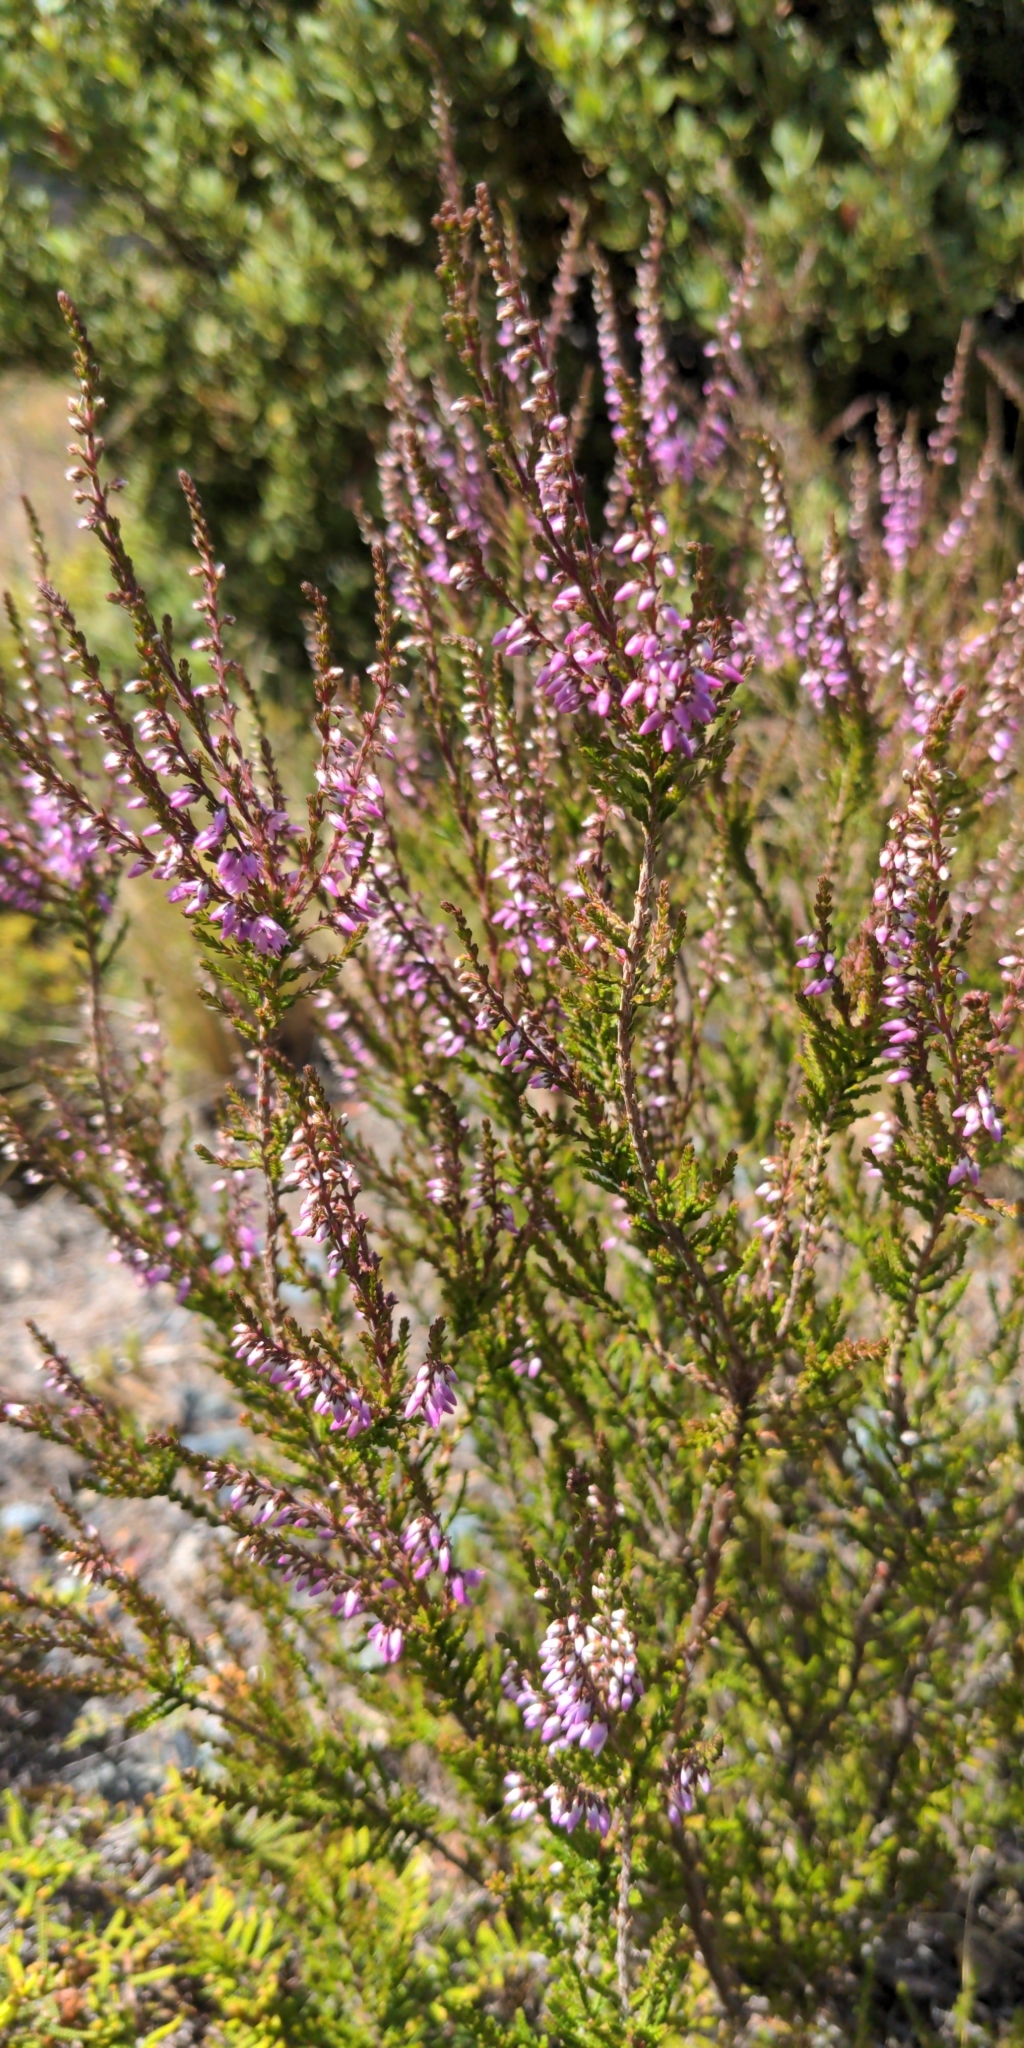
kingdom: Plantae
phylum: Tracheophyta
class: Magnoliopsida
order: Ericales
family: Ericaceae
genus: Calluna
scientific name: Calluna vulgaris
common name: Heather
